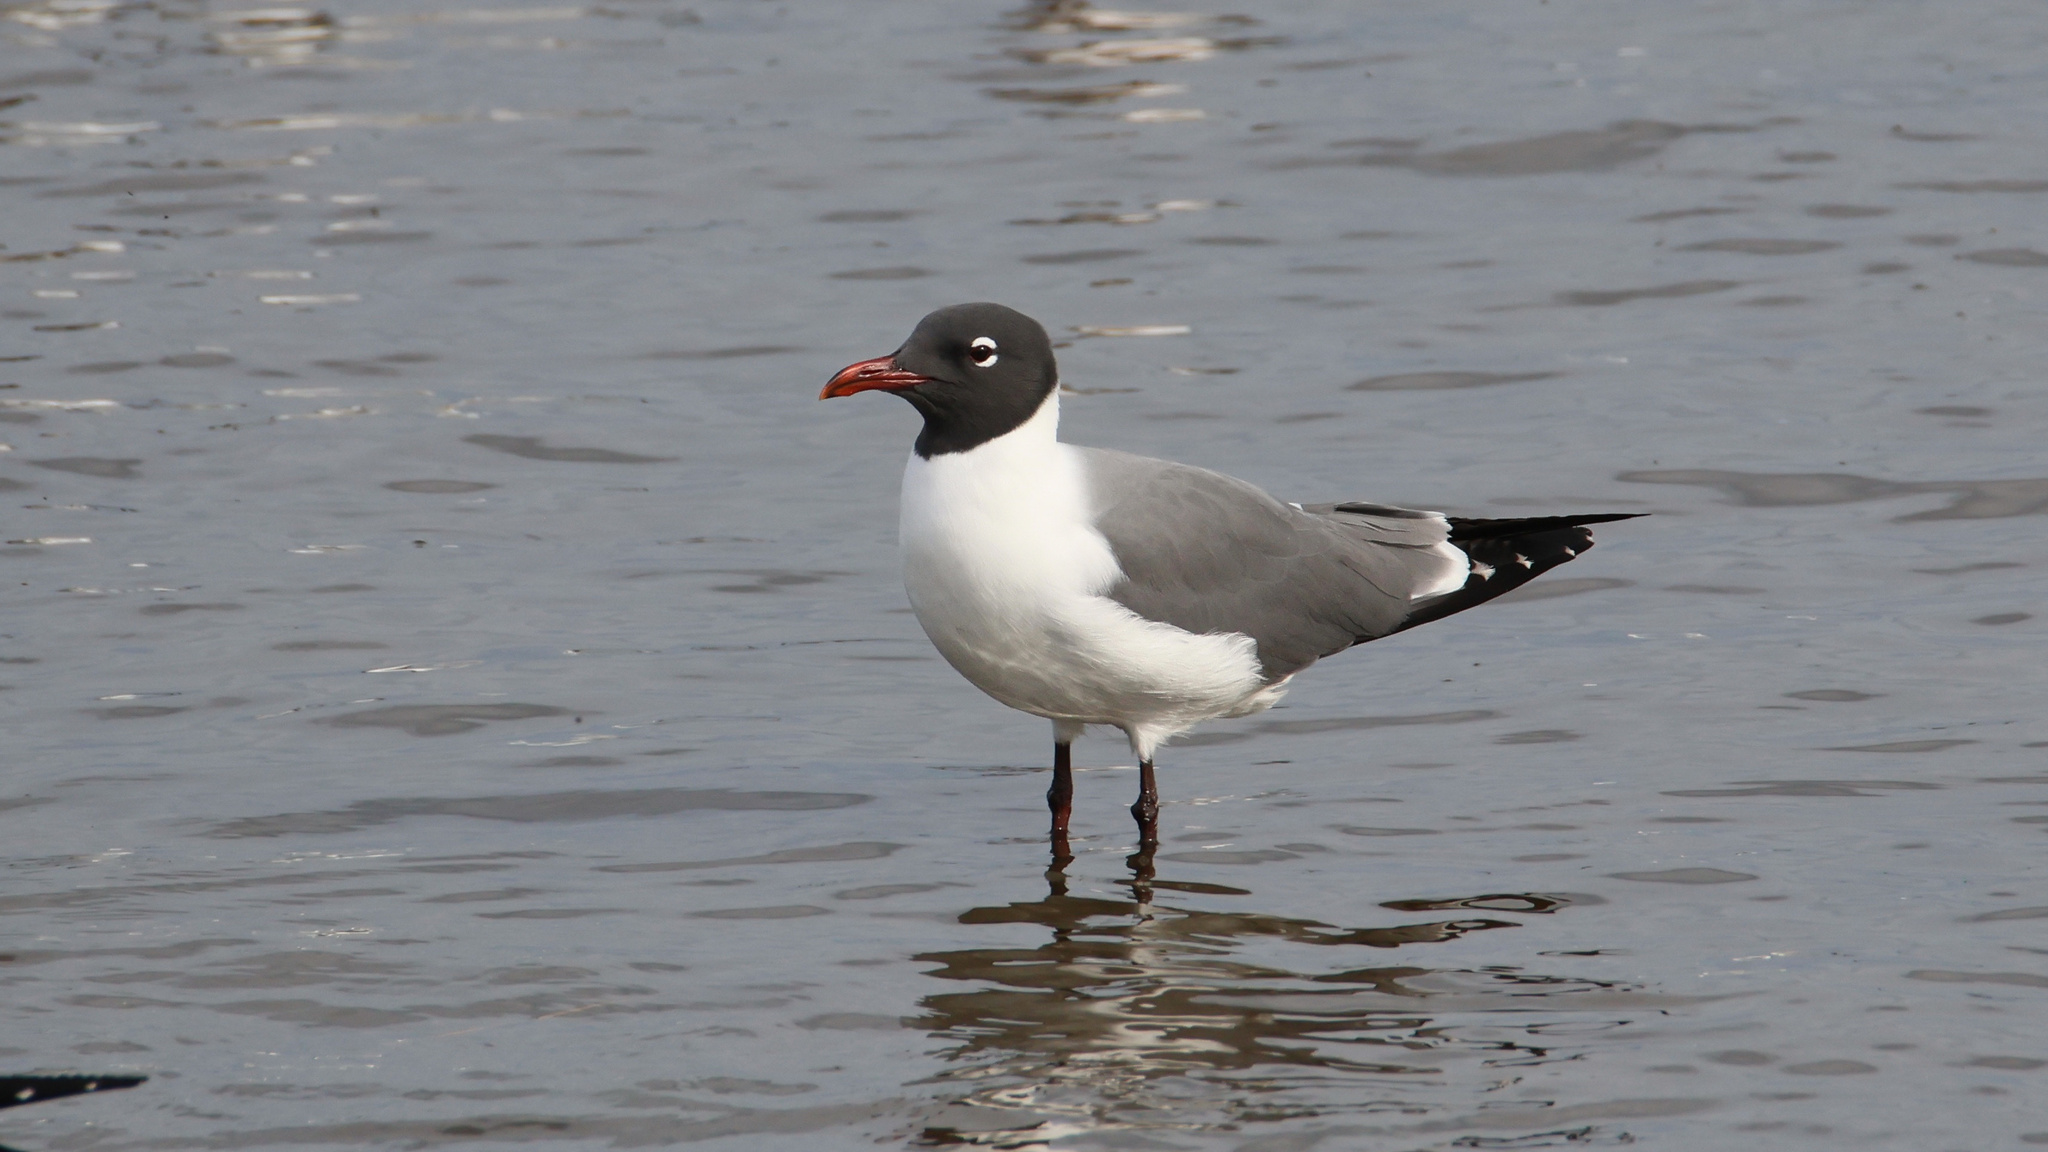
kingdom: Animalia
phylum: Chordata
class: Aves
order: Charadriiformes
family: Laridae
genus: Leucophaeus
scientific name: Leucophaeus atricilla
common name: Laughing gull
